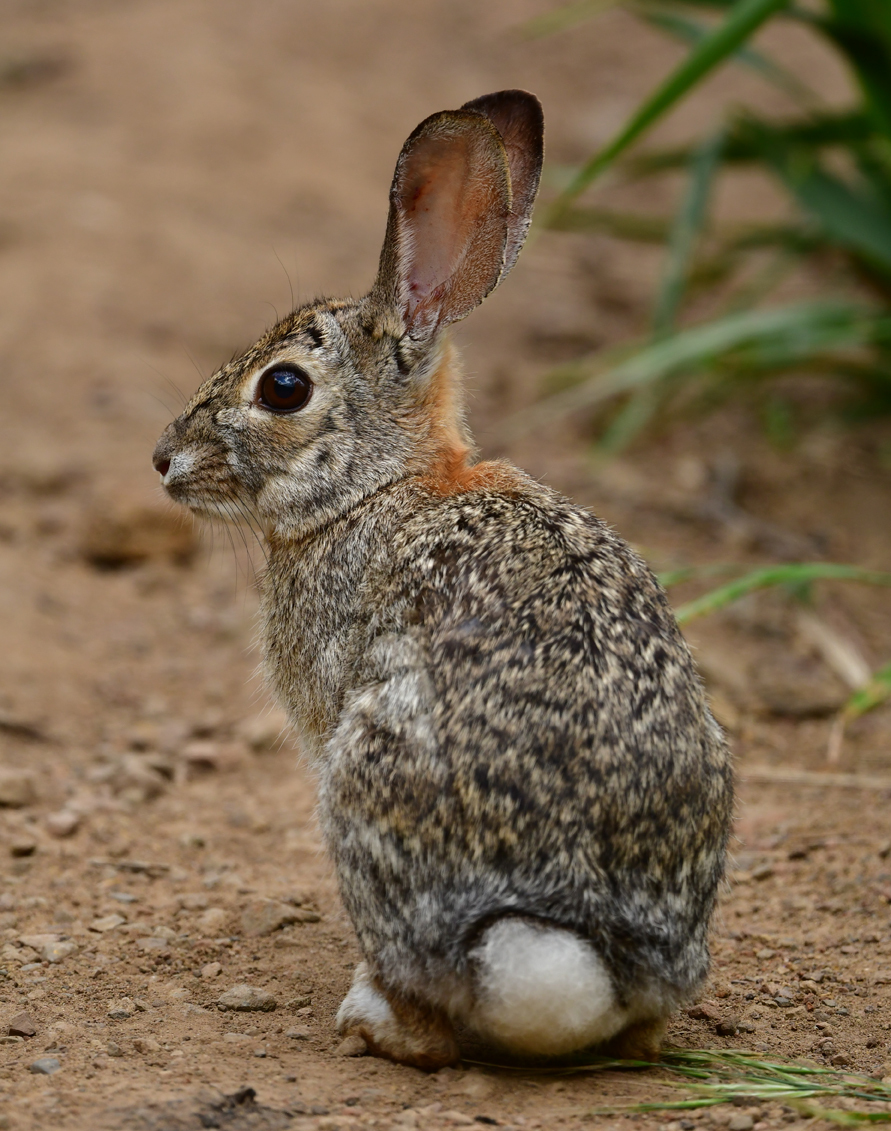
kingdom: Animalia
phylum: Chordata
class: Mammalia
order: Lagomorpha
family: Leporidae
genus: Sylvilagus
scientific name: Sylvilagus audubonii
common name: Desert cottontail
